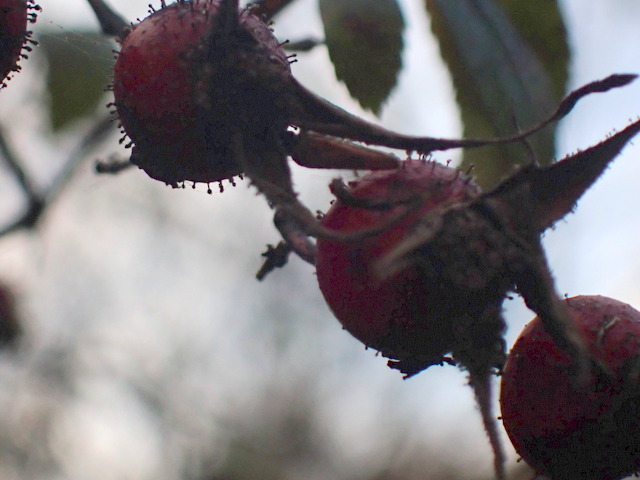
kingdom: Plantae
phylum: Tracheophyta
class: Magnoliopsida
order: Rosales
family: Rosaceae
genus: Rosa
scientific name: Rosa palustris
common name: Swamp rose
